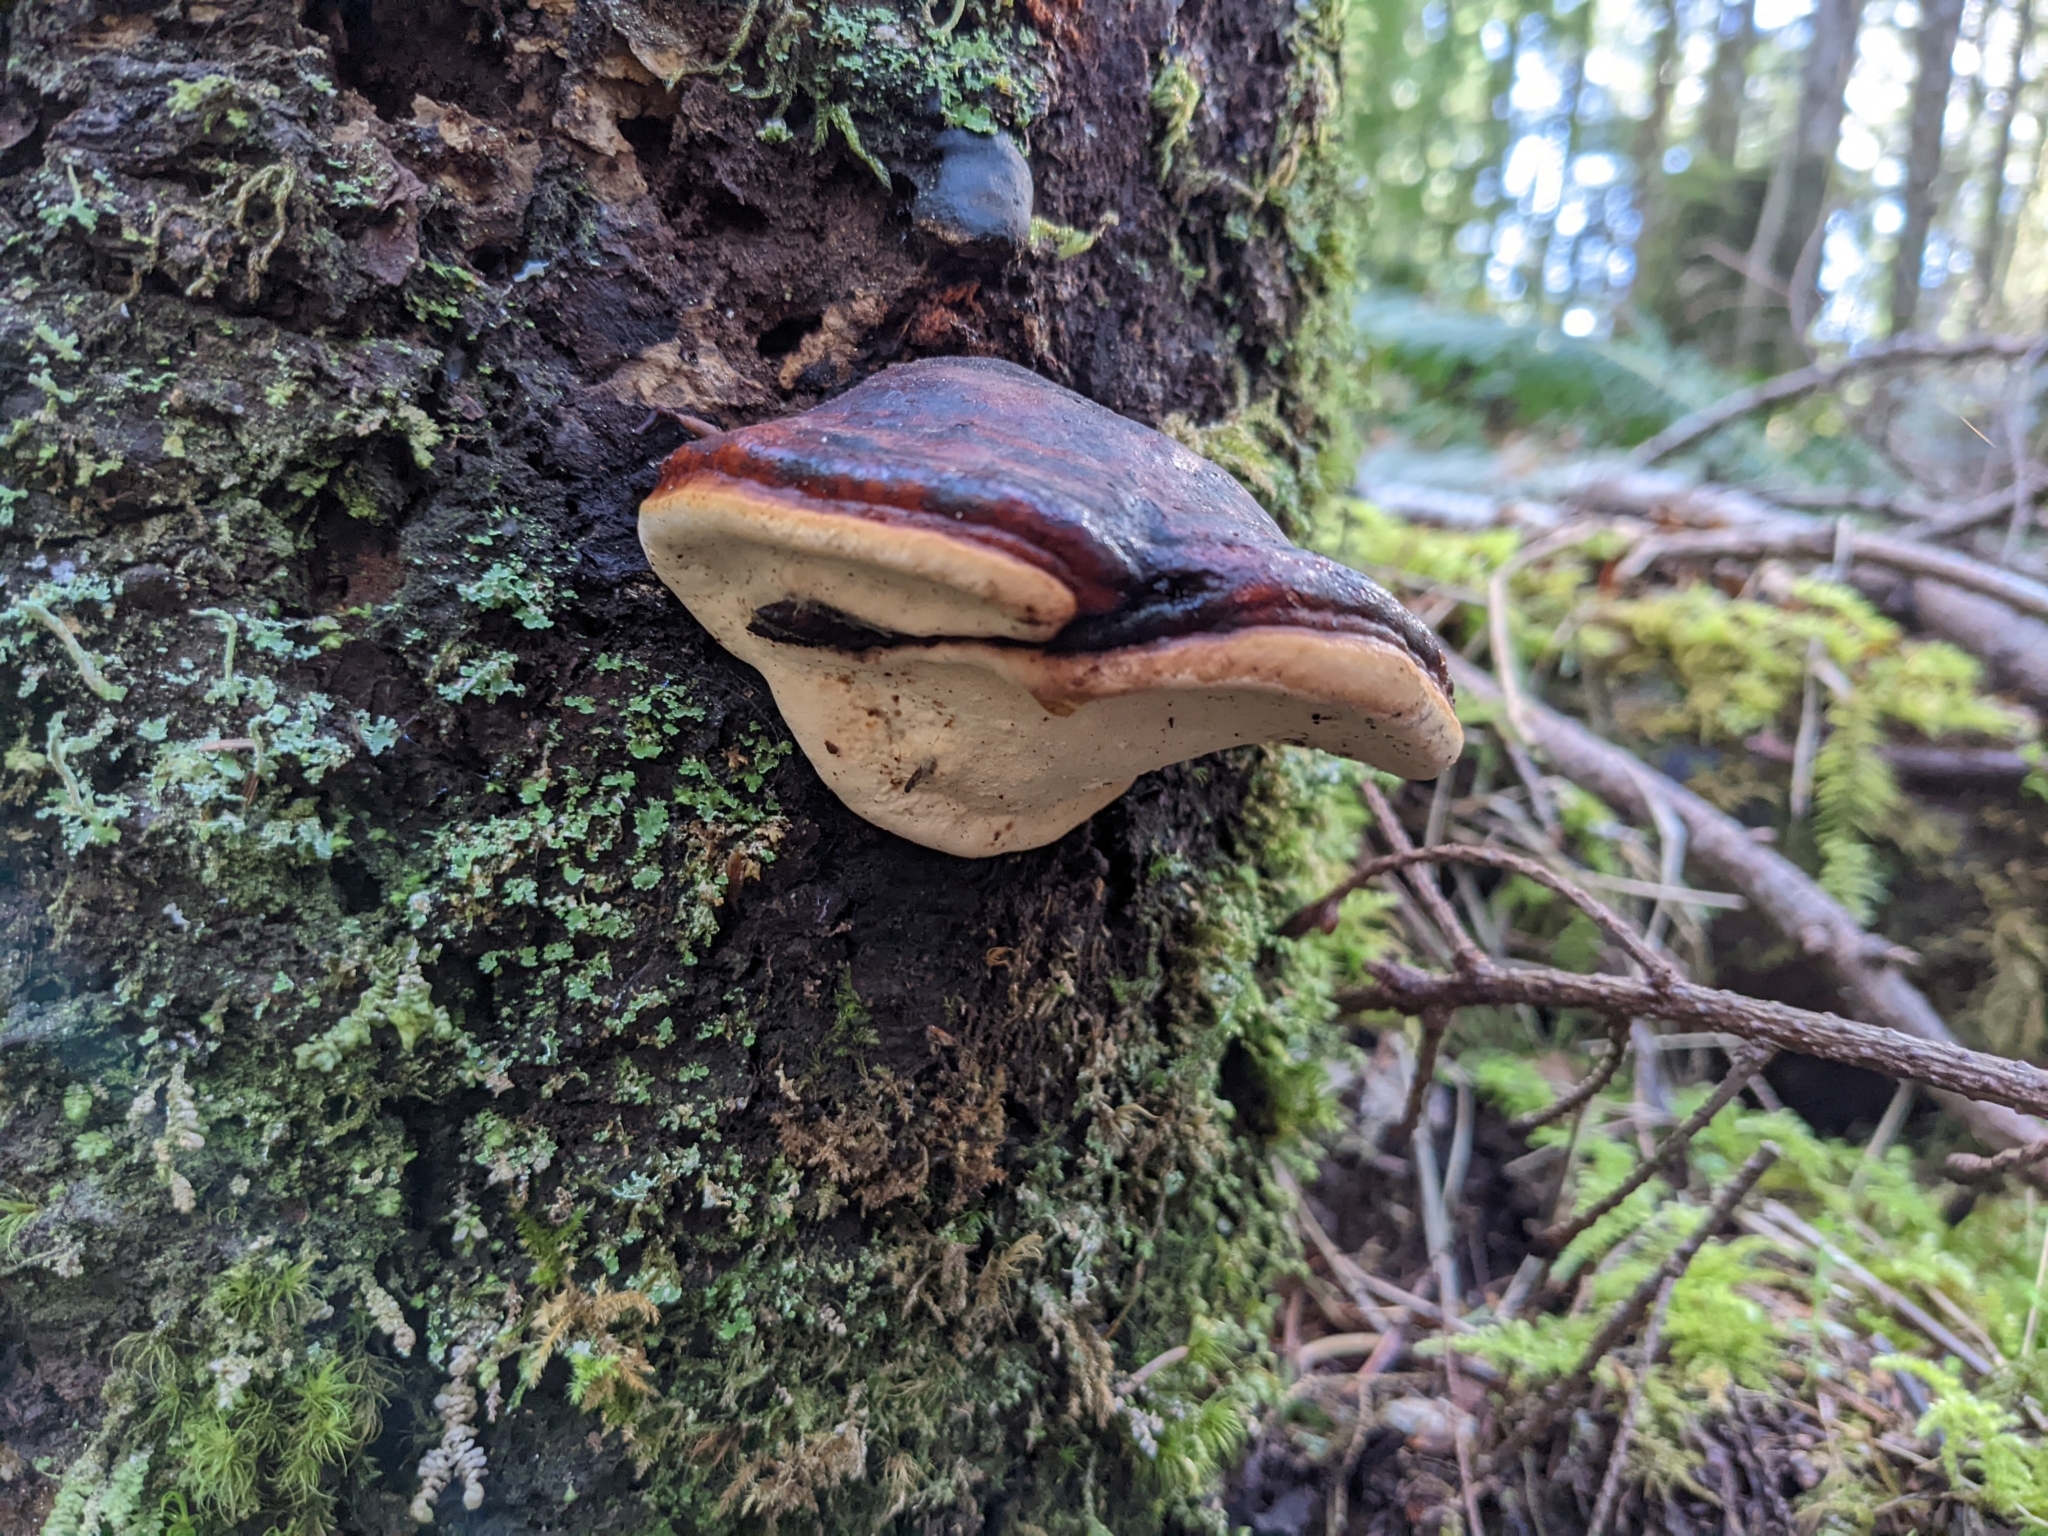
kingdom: Fungi
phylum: Basidiomycota
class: Agaricomycetes
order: Polyporales
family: Fomitopsidaceae
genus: Fomitopsis
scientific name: Fomitopsis mounceae
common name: Northern red belt
